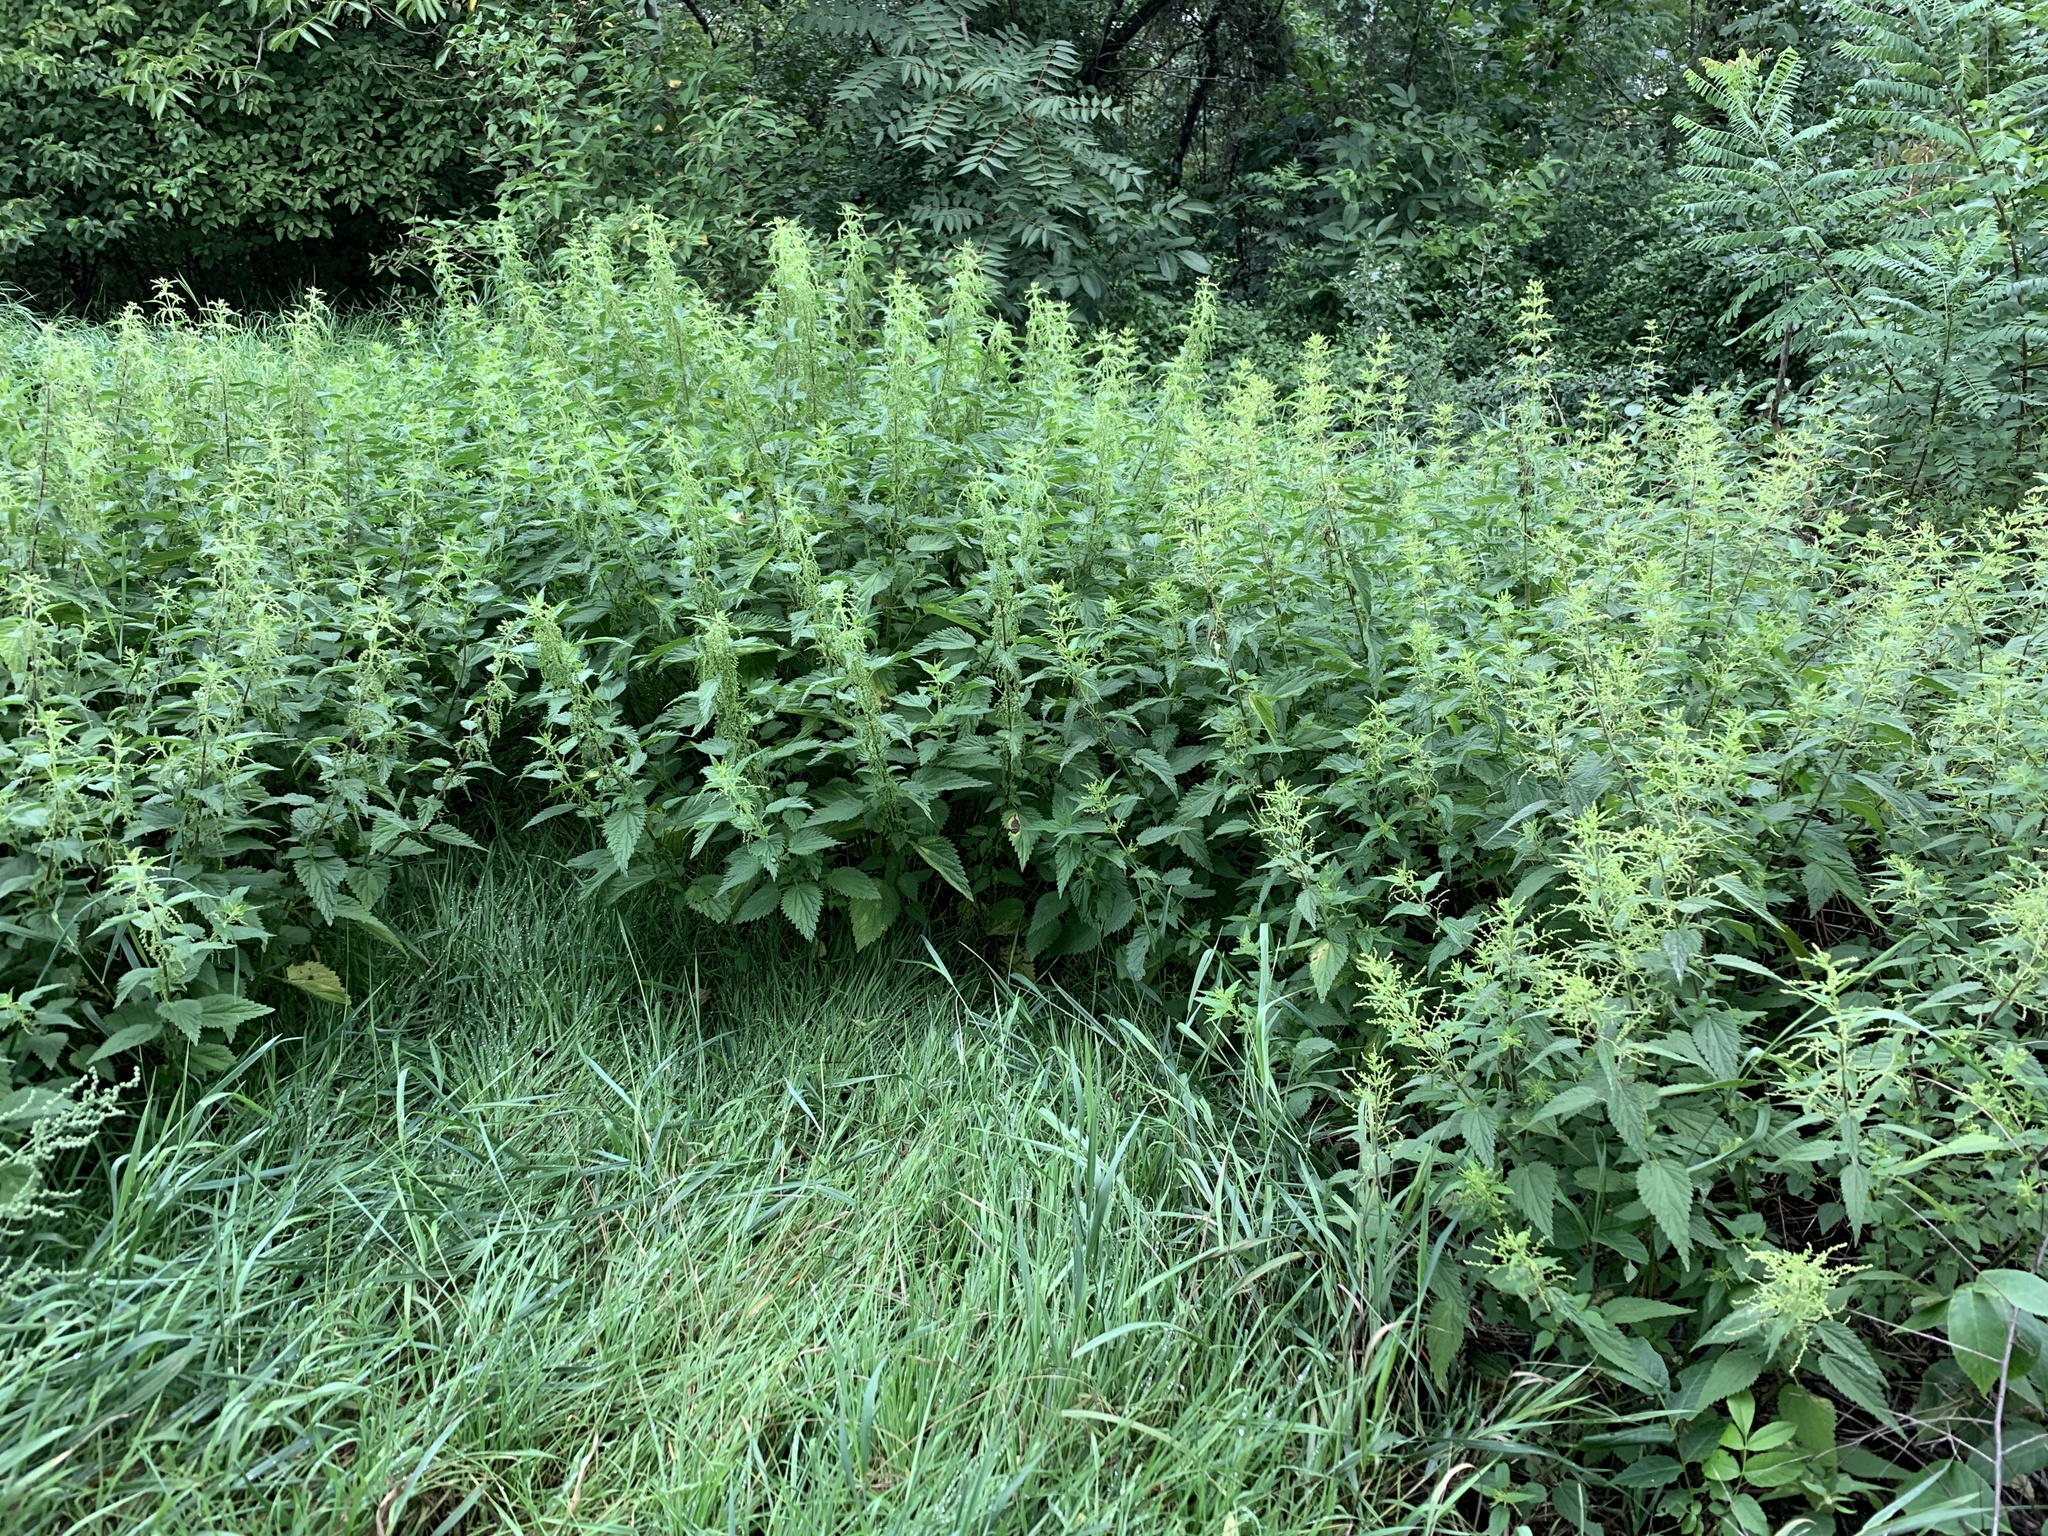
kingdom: Plantae
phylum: Tracheophyta
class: Magnoliopsida
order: Rosales
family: Urticaceae
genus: Urtica
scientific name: Urtica dioica
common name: Common nettle
